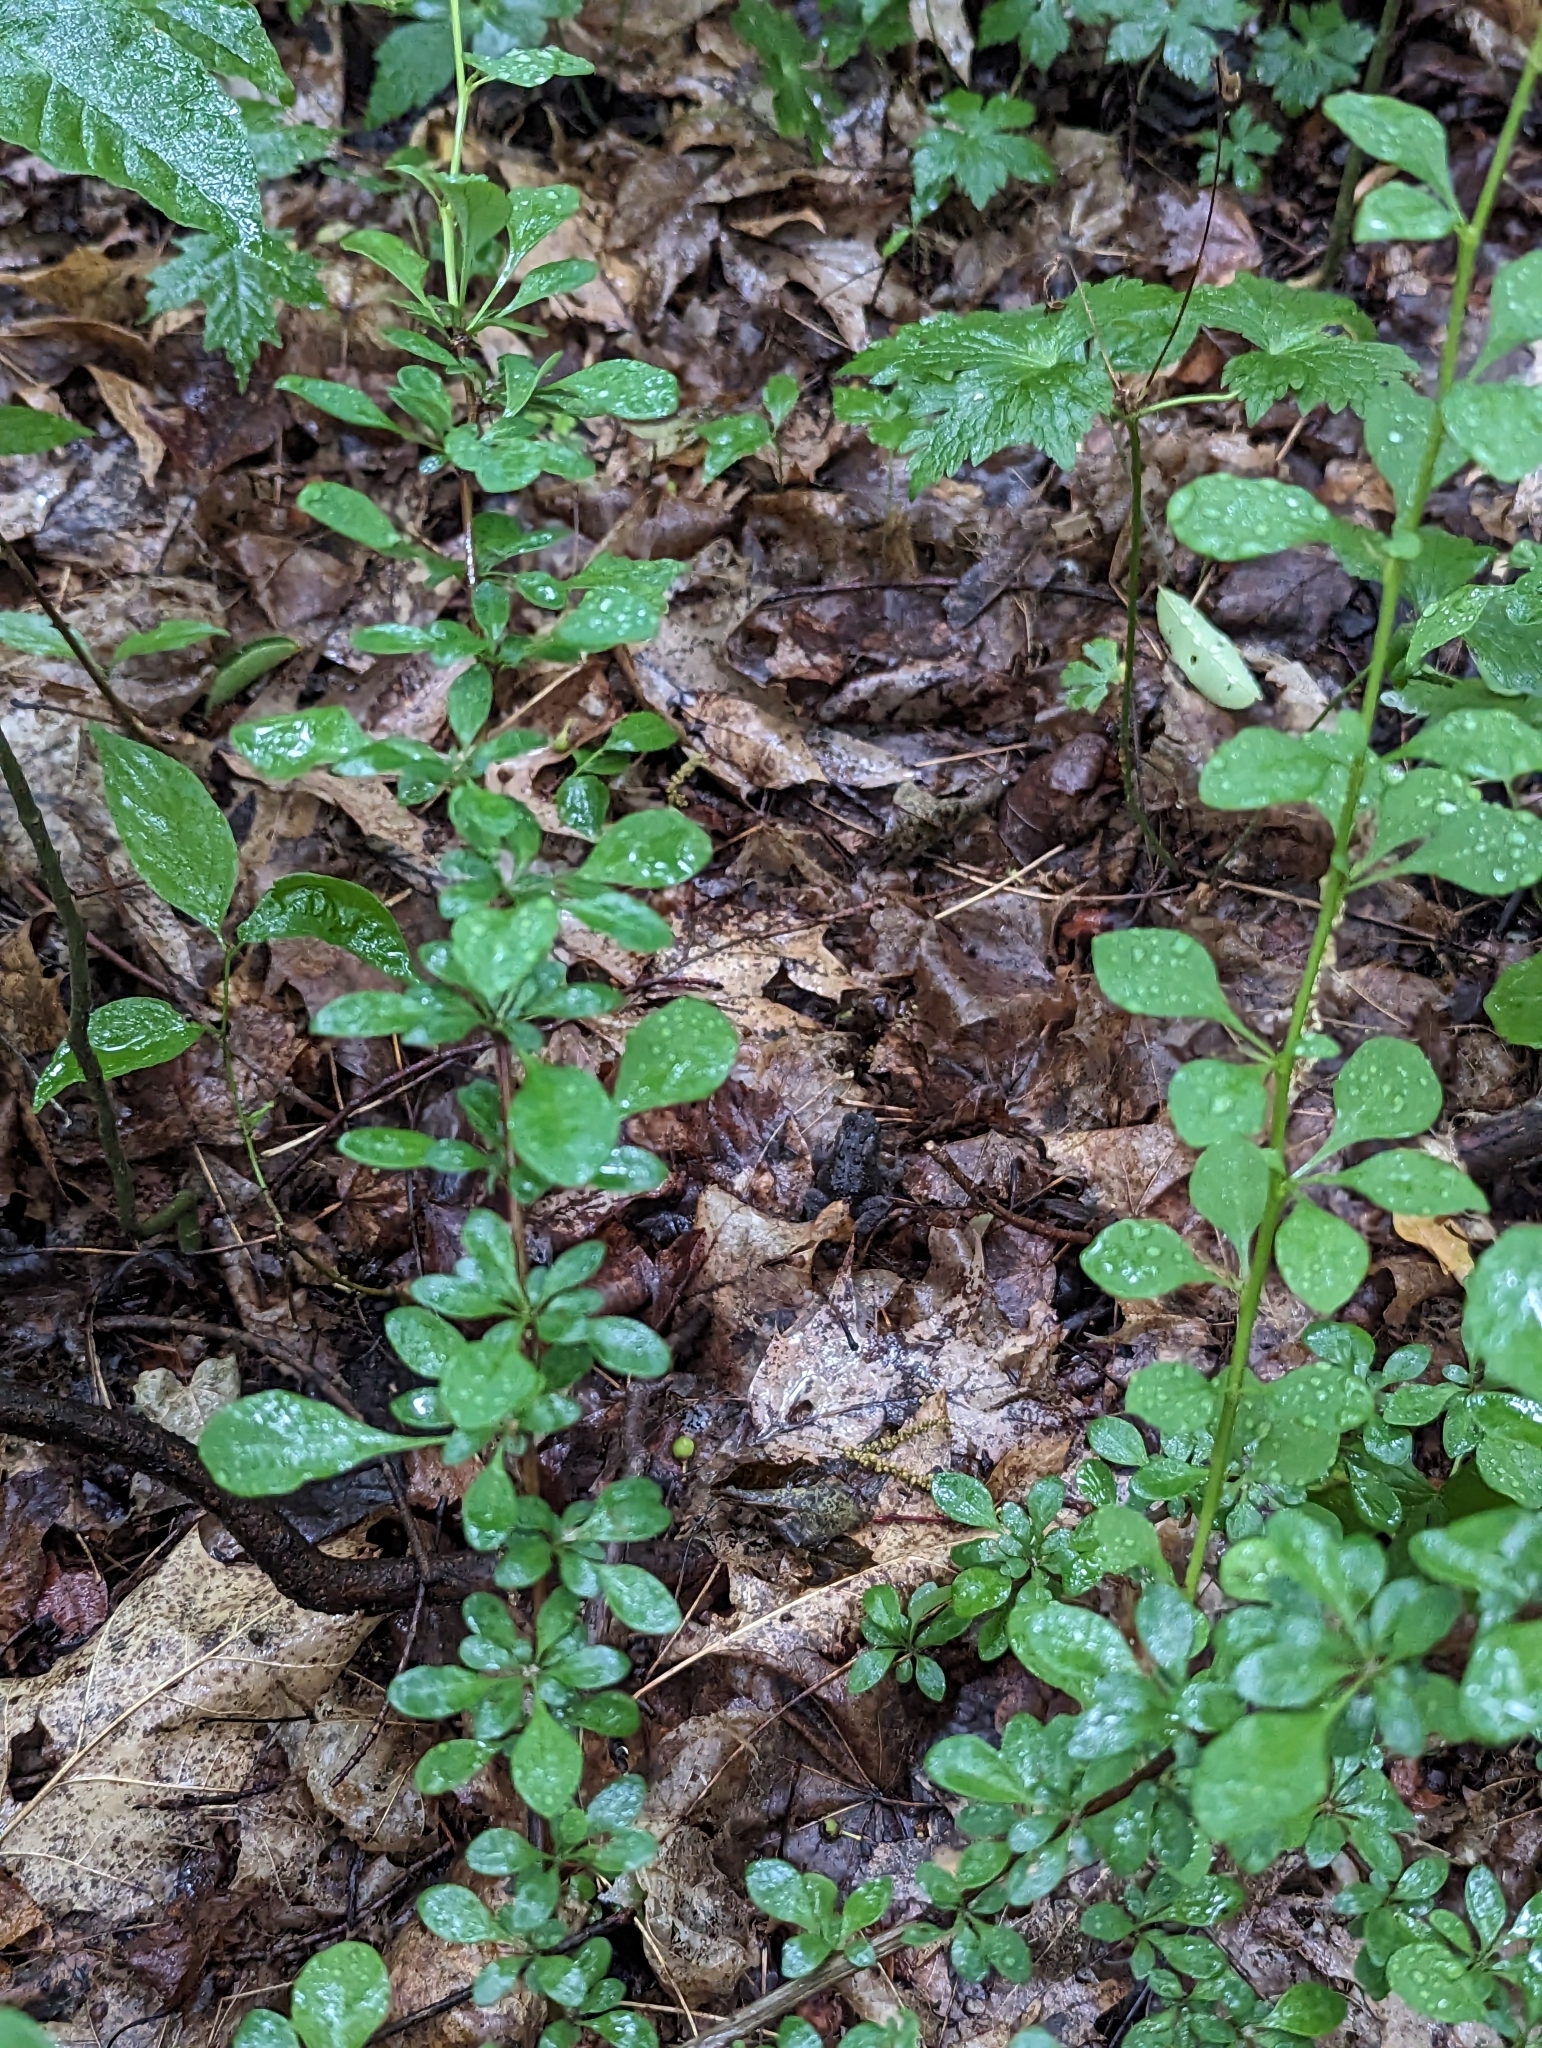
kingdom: Plantae
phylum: Tracheophyta
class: Magnoliopsida
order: Ranunculales
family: Berberidaceae
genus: Berberis
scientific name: Berberis thunbergii
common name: Japanese barberry
